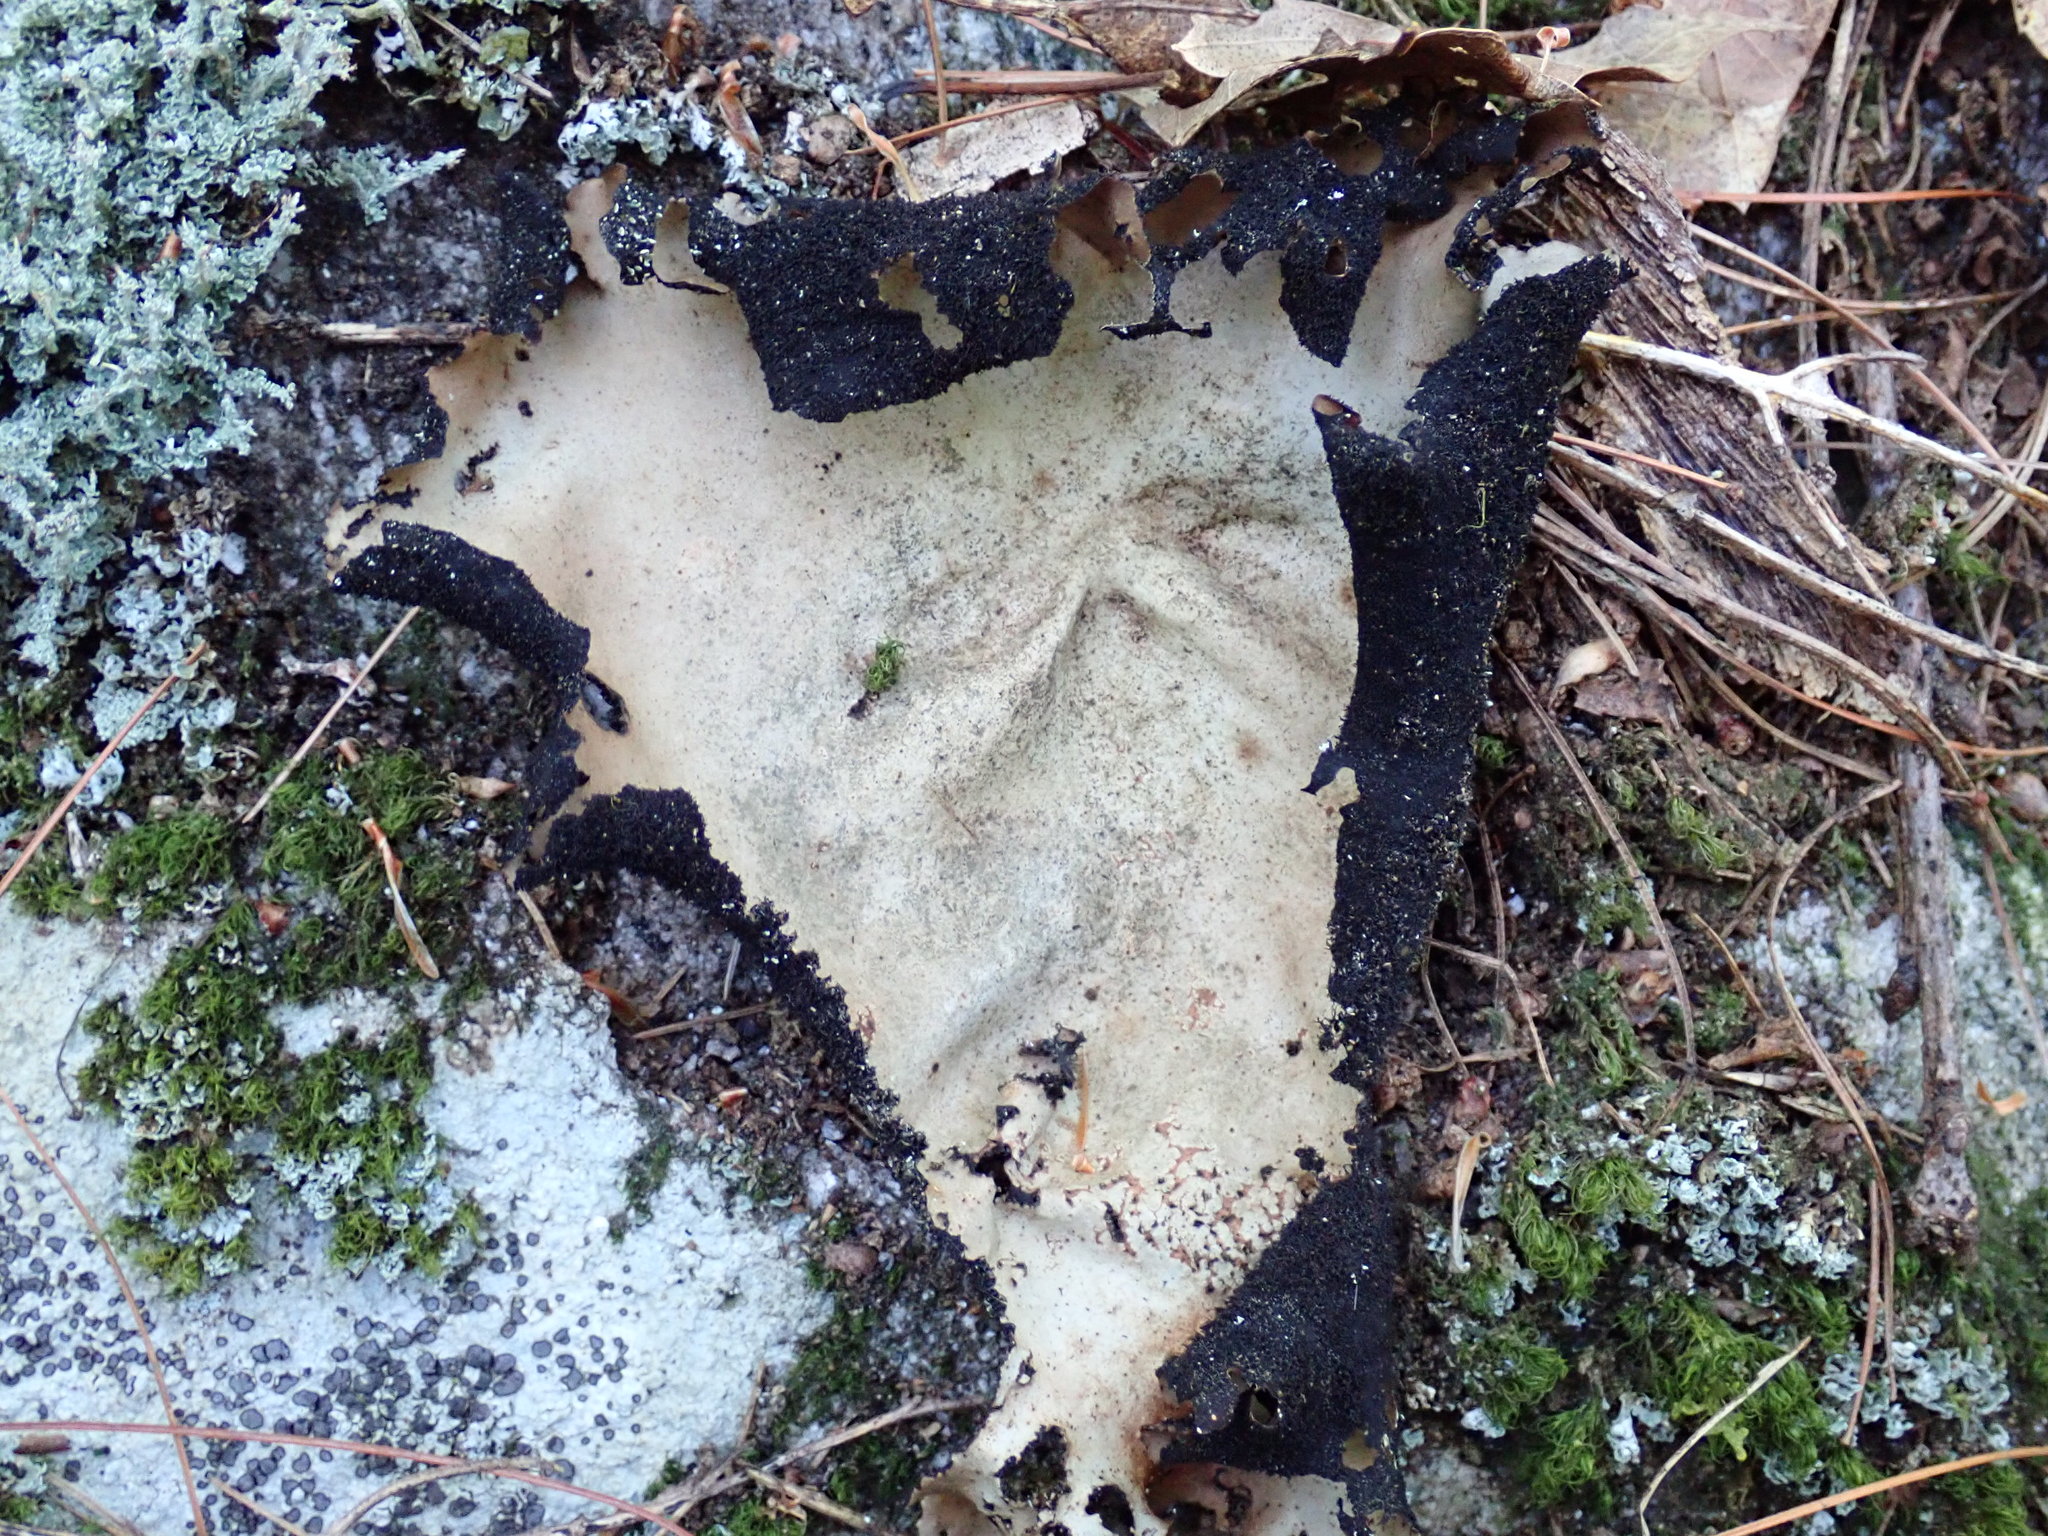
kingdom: Fungi
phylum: Ascomycota
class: Lecanoromycetes
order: Umbilicariales
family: Umbilicariaceae
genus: Umbilicaria
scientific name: Umbilicaria mammulata
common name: Smooth rock tripe
